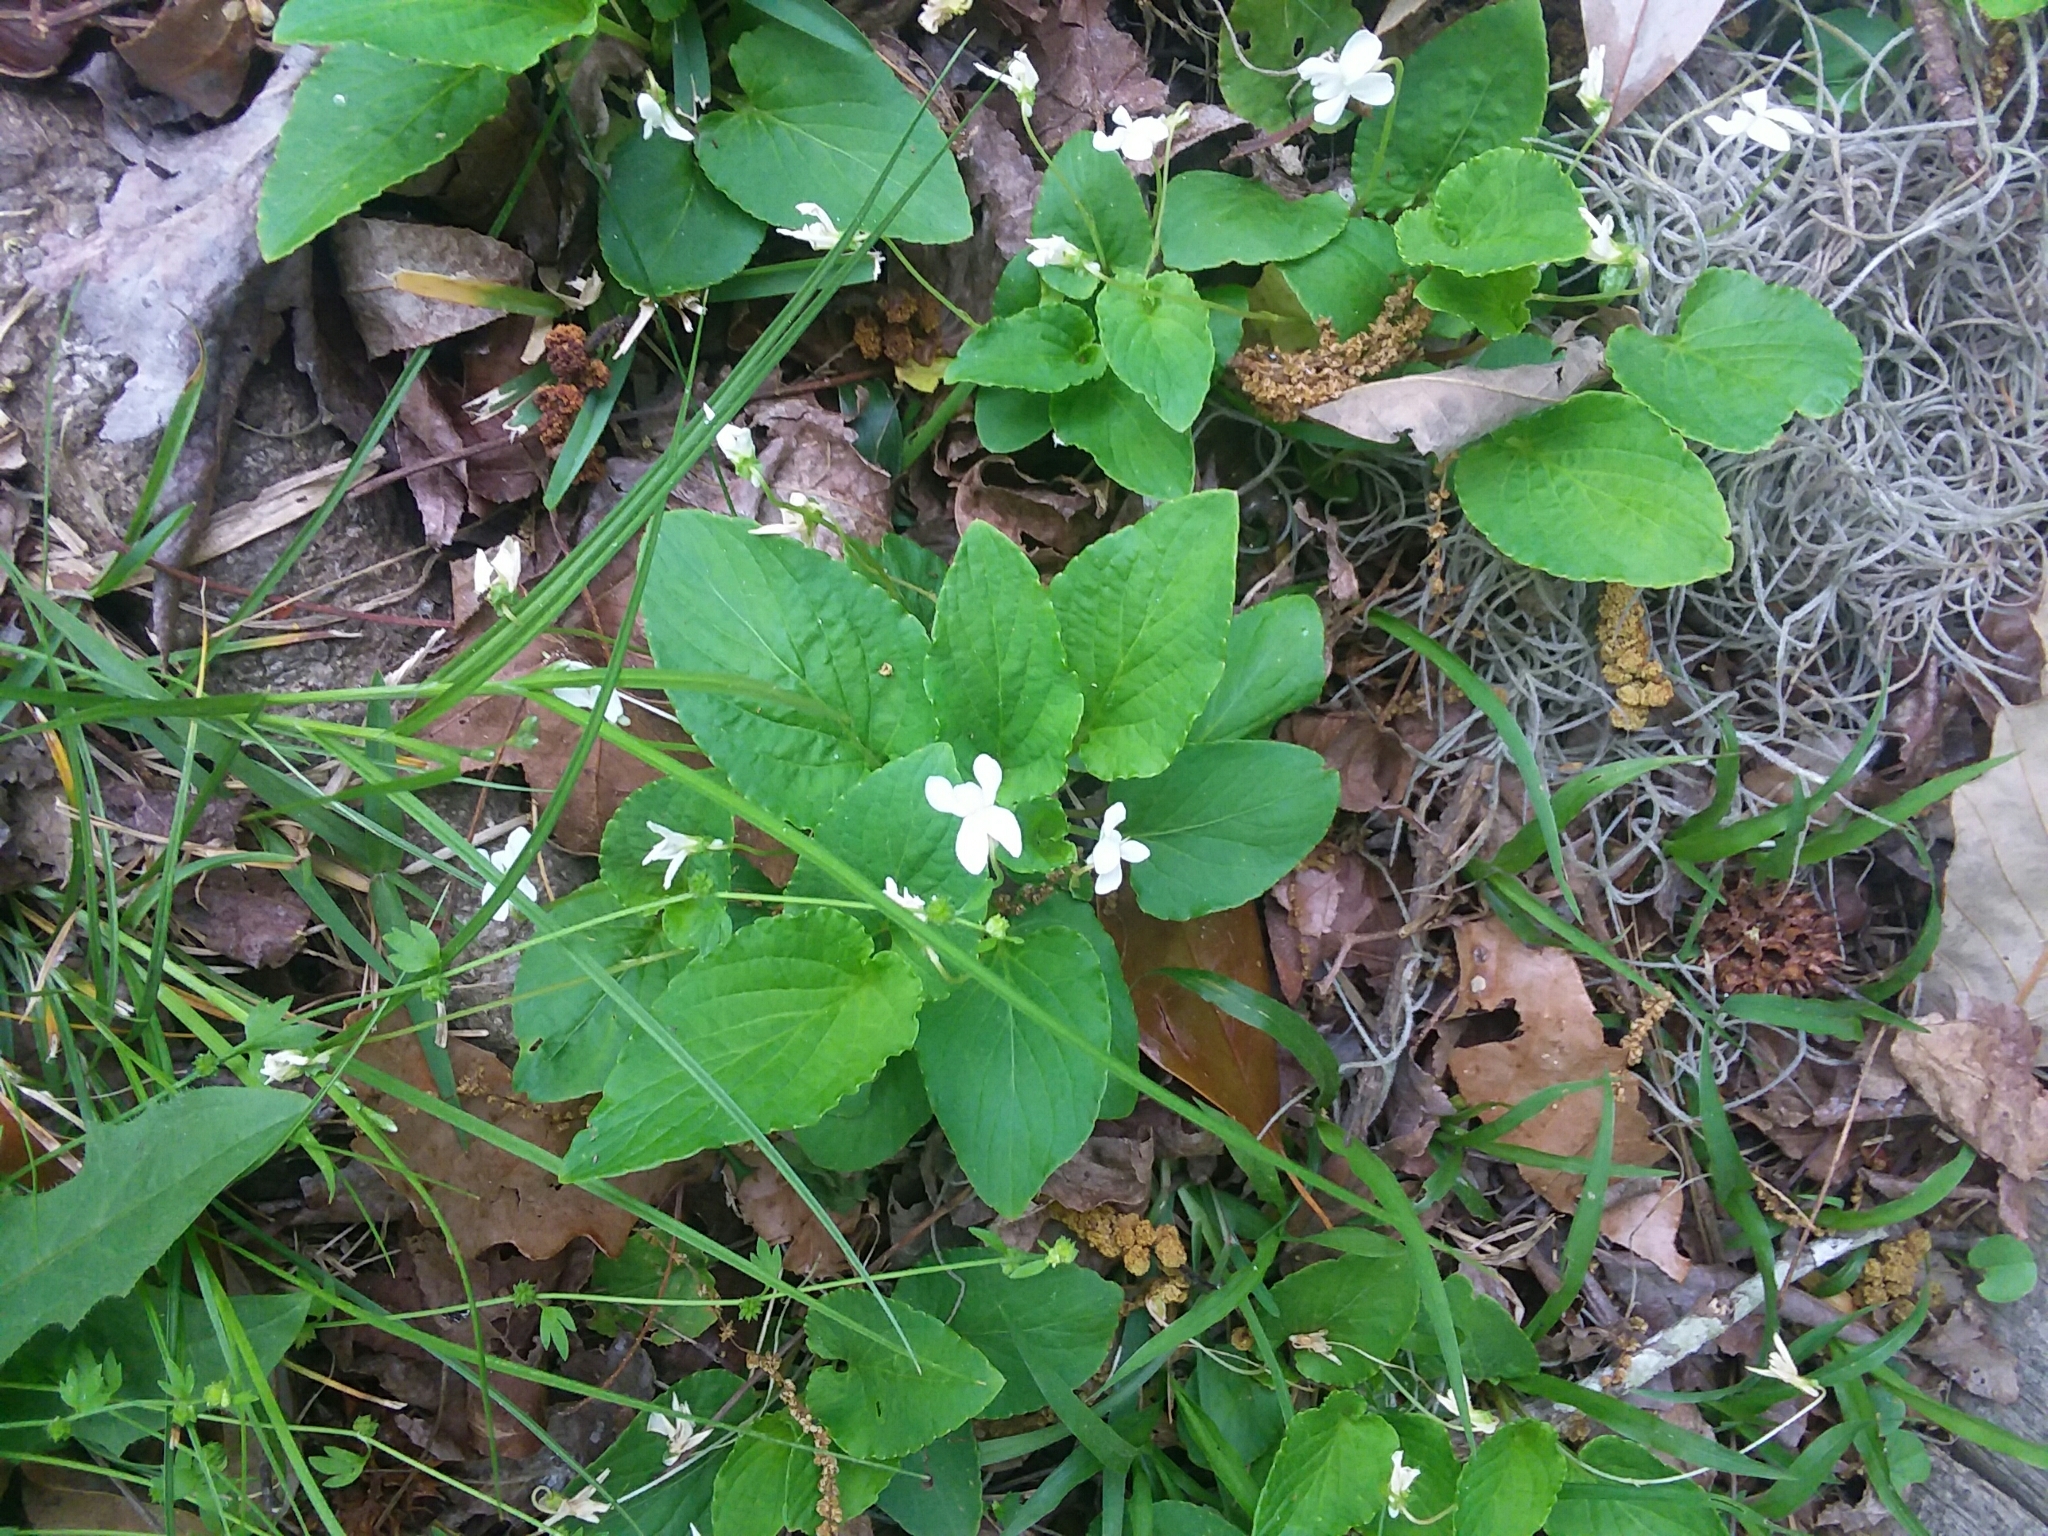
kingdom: Plantae
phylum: Tracheophyta
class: Magnoliopsida
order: Malpighiales
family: Violaceae
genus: Viola
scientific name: Viola primulifolia
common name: Primrose-leaf violet
